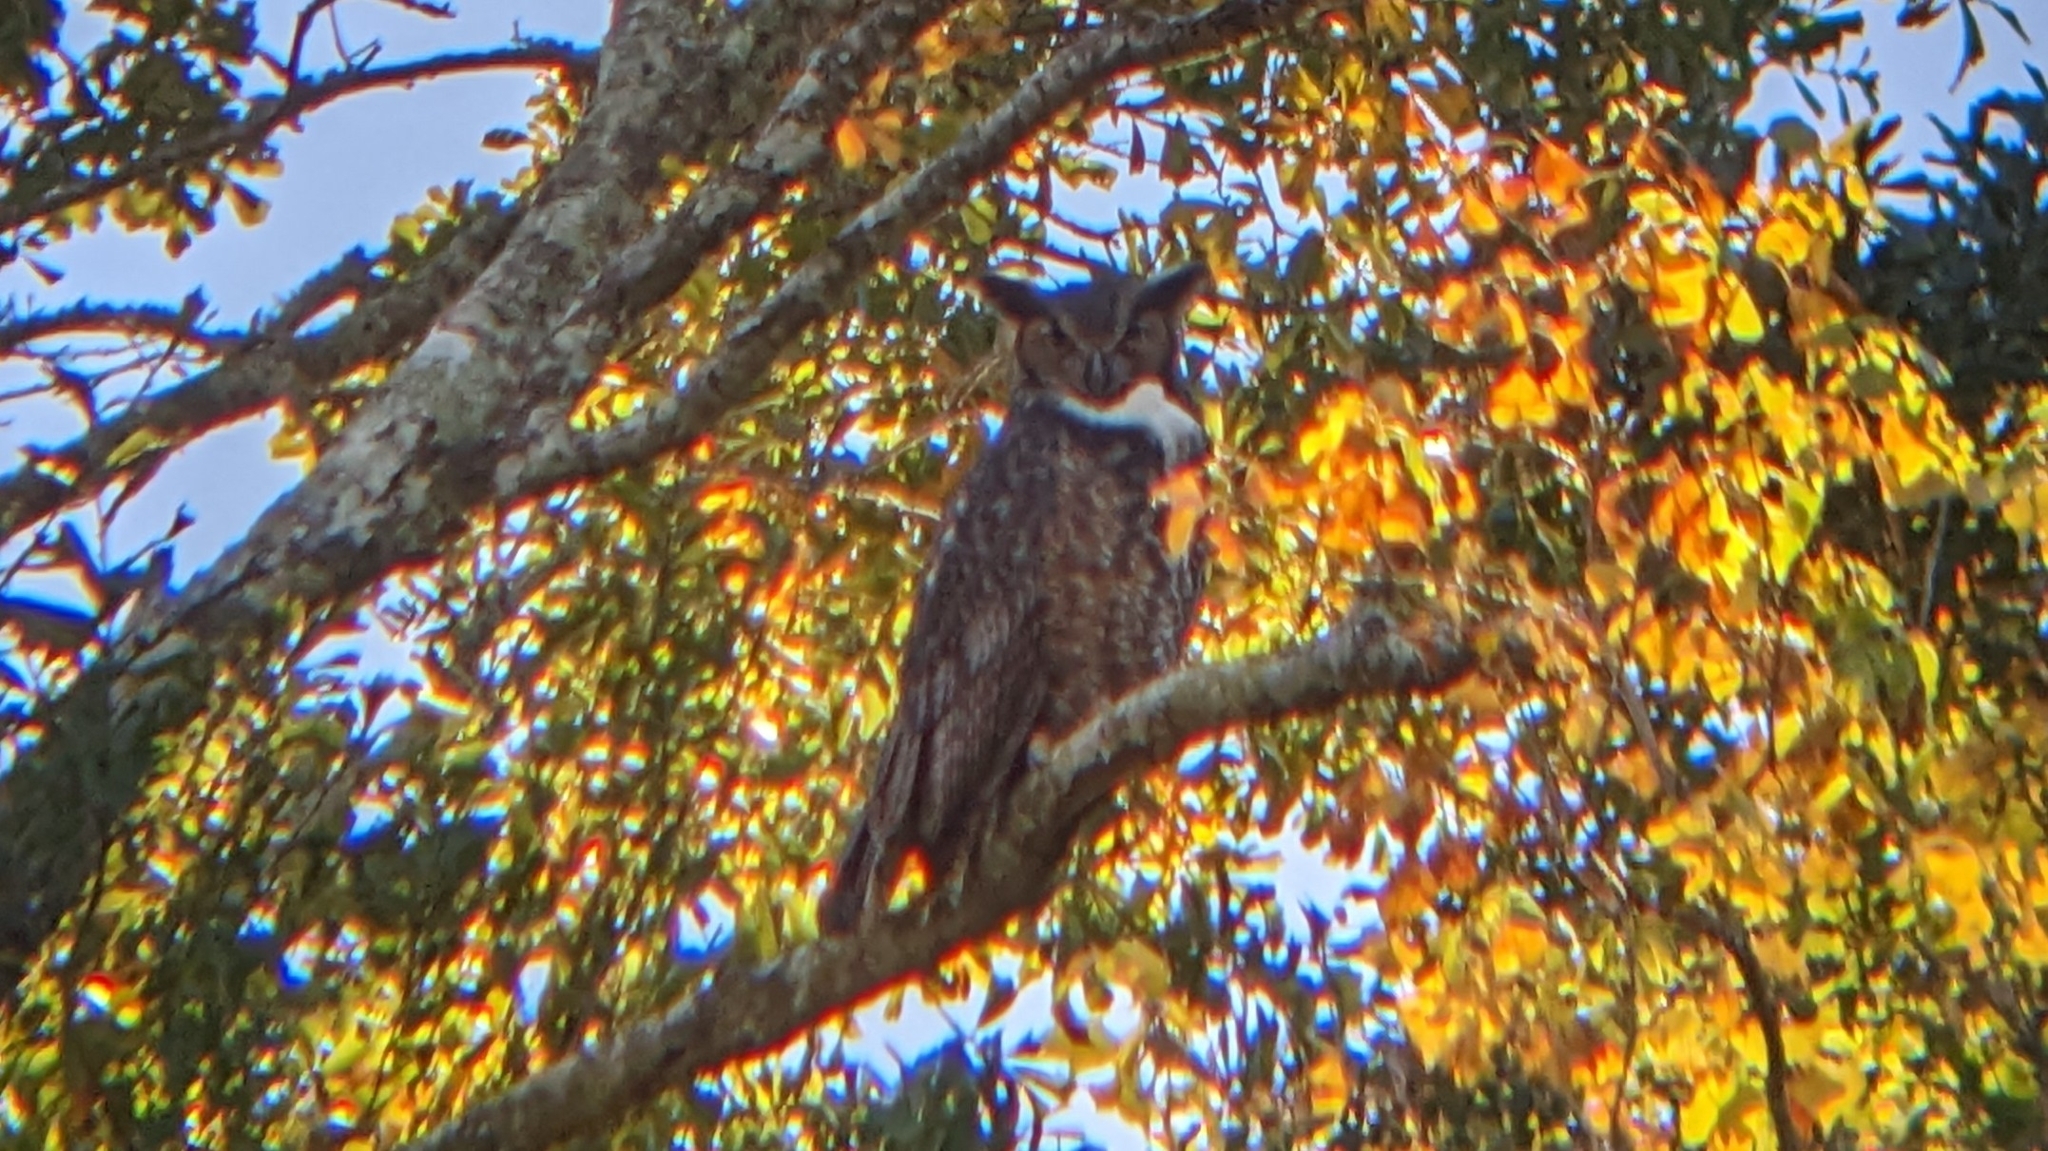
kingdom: Animalia
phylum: Chordata
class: Aves
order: Strigiformes
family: Strigidae
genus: Bubo
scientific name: Bubo virginianus
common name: Great horned owl
